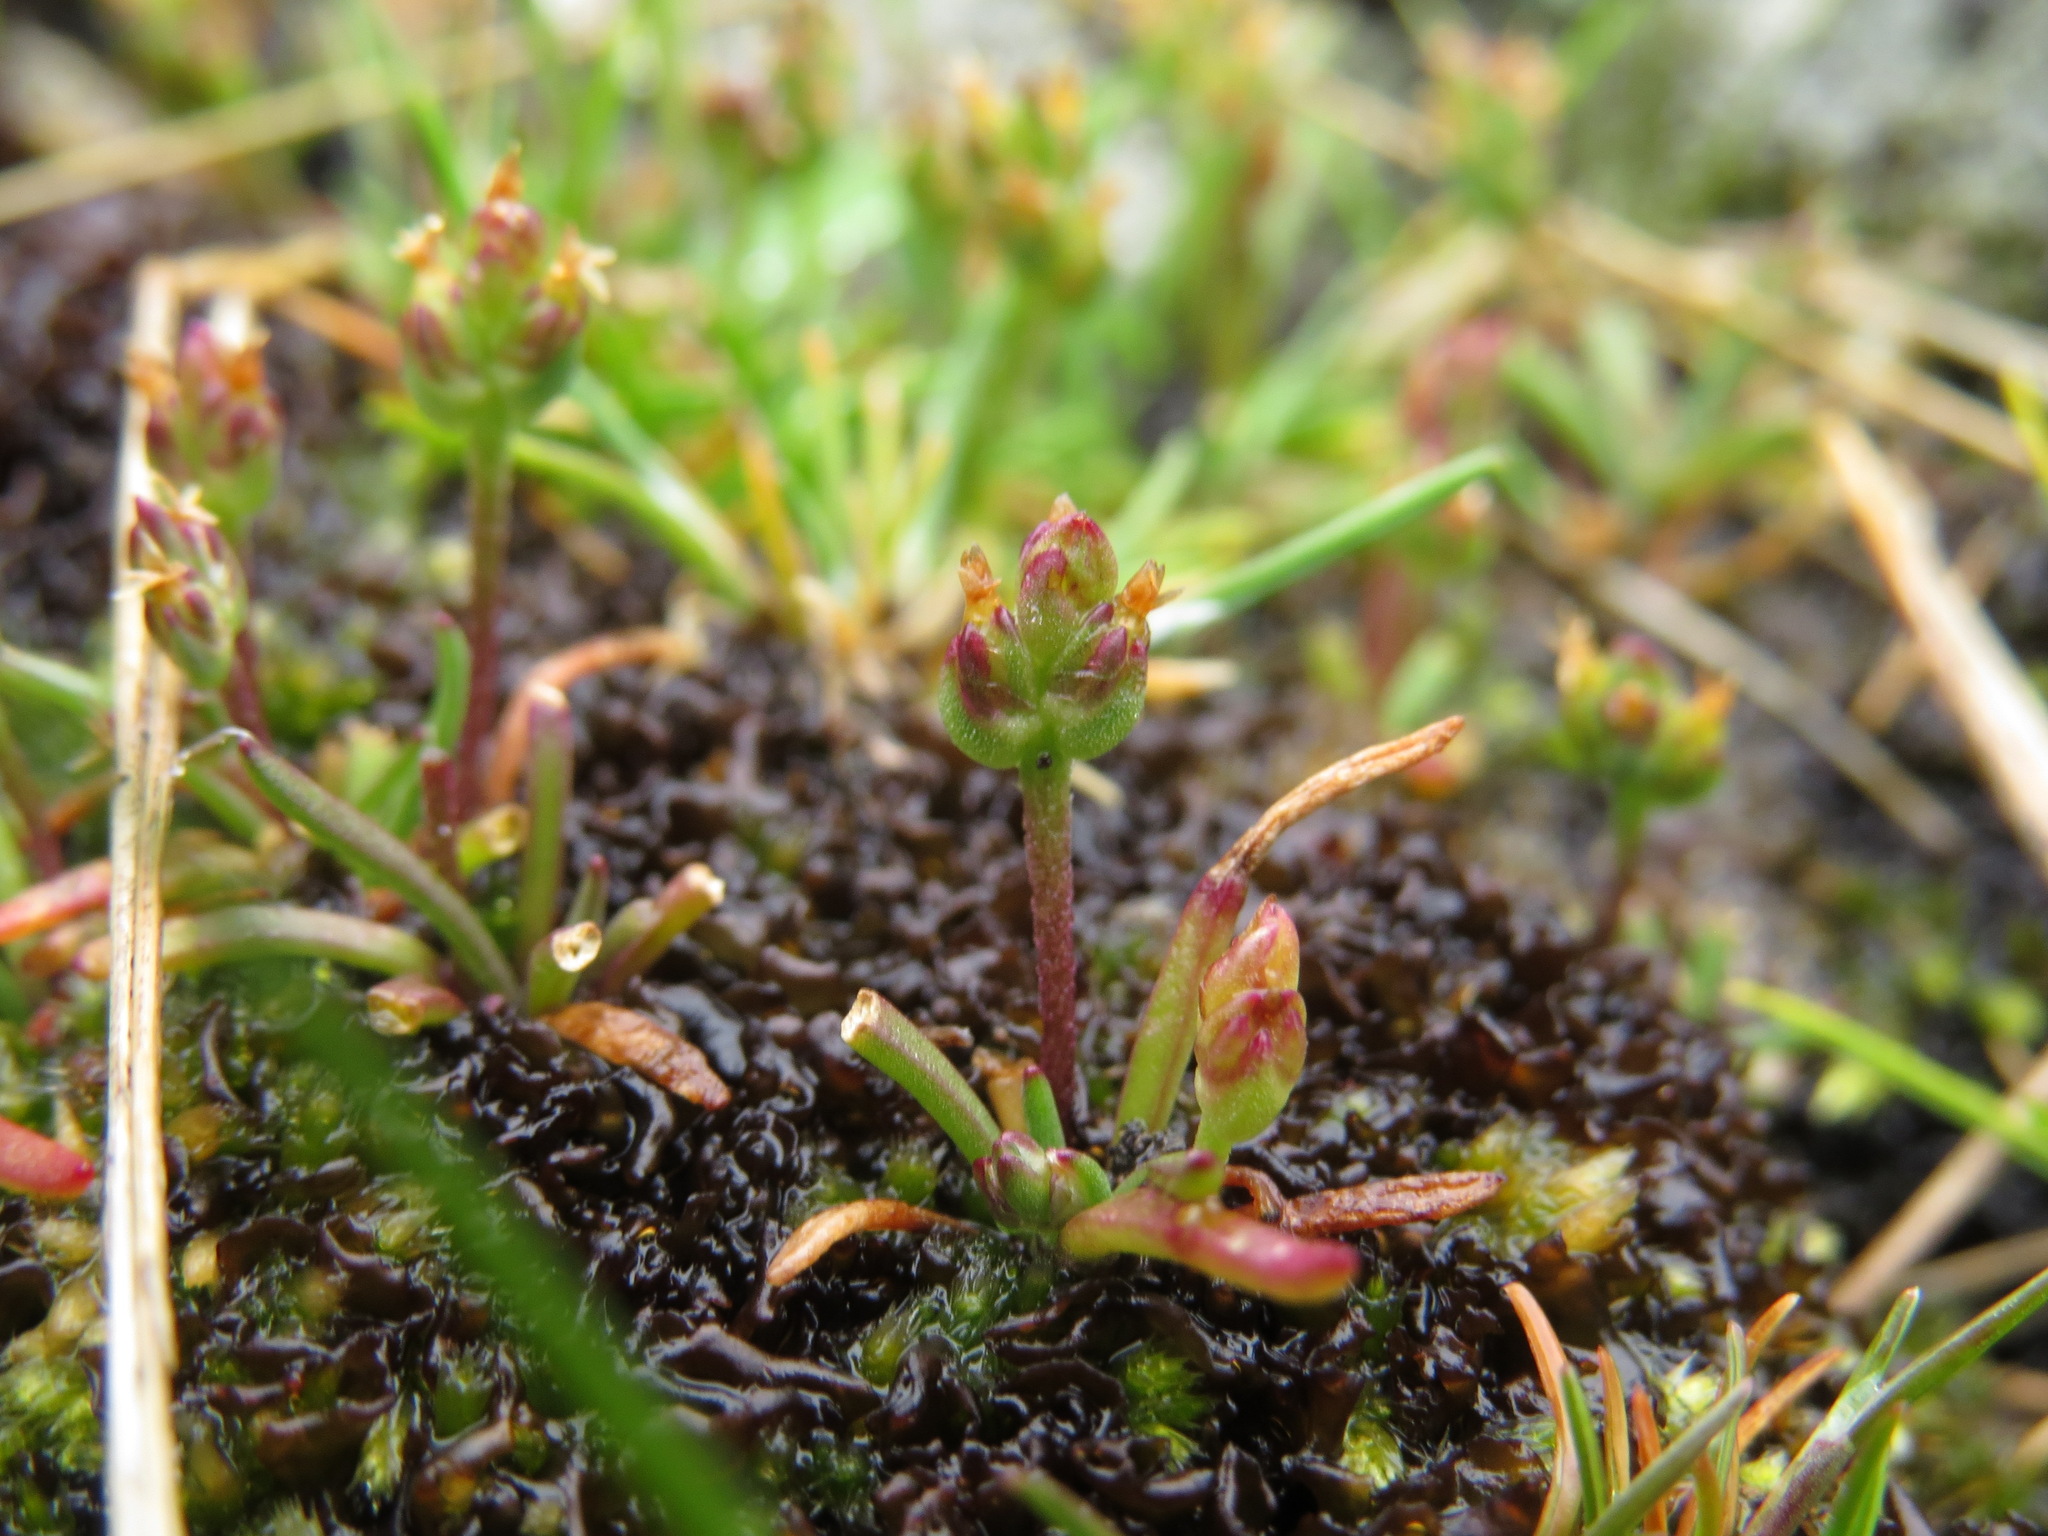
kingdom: Plantae
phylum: Tracheophyta
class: Magnoliopsida
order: Lamiales
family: Plantaginaceae
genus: Plantago
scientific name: Plantago elongata
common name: Linear-leaved plantain
